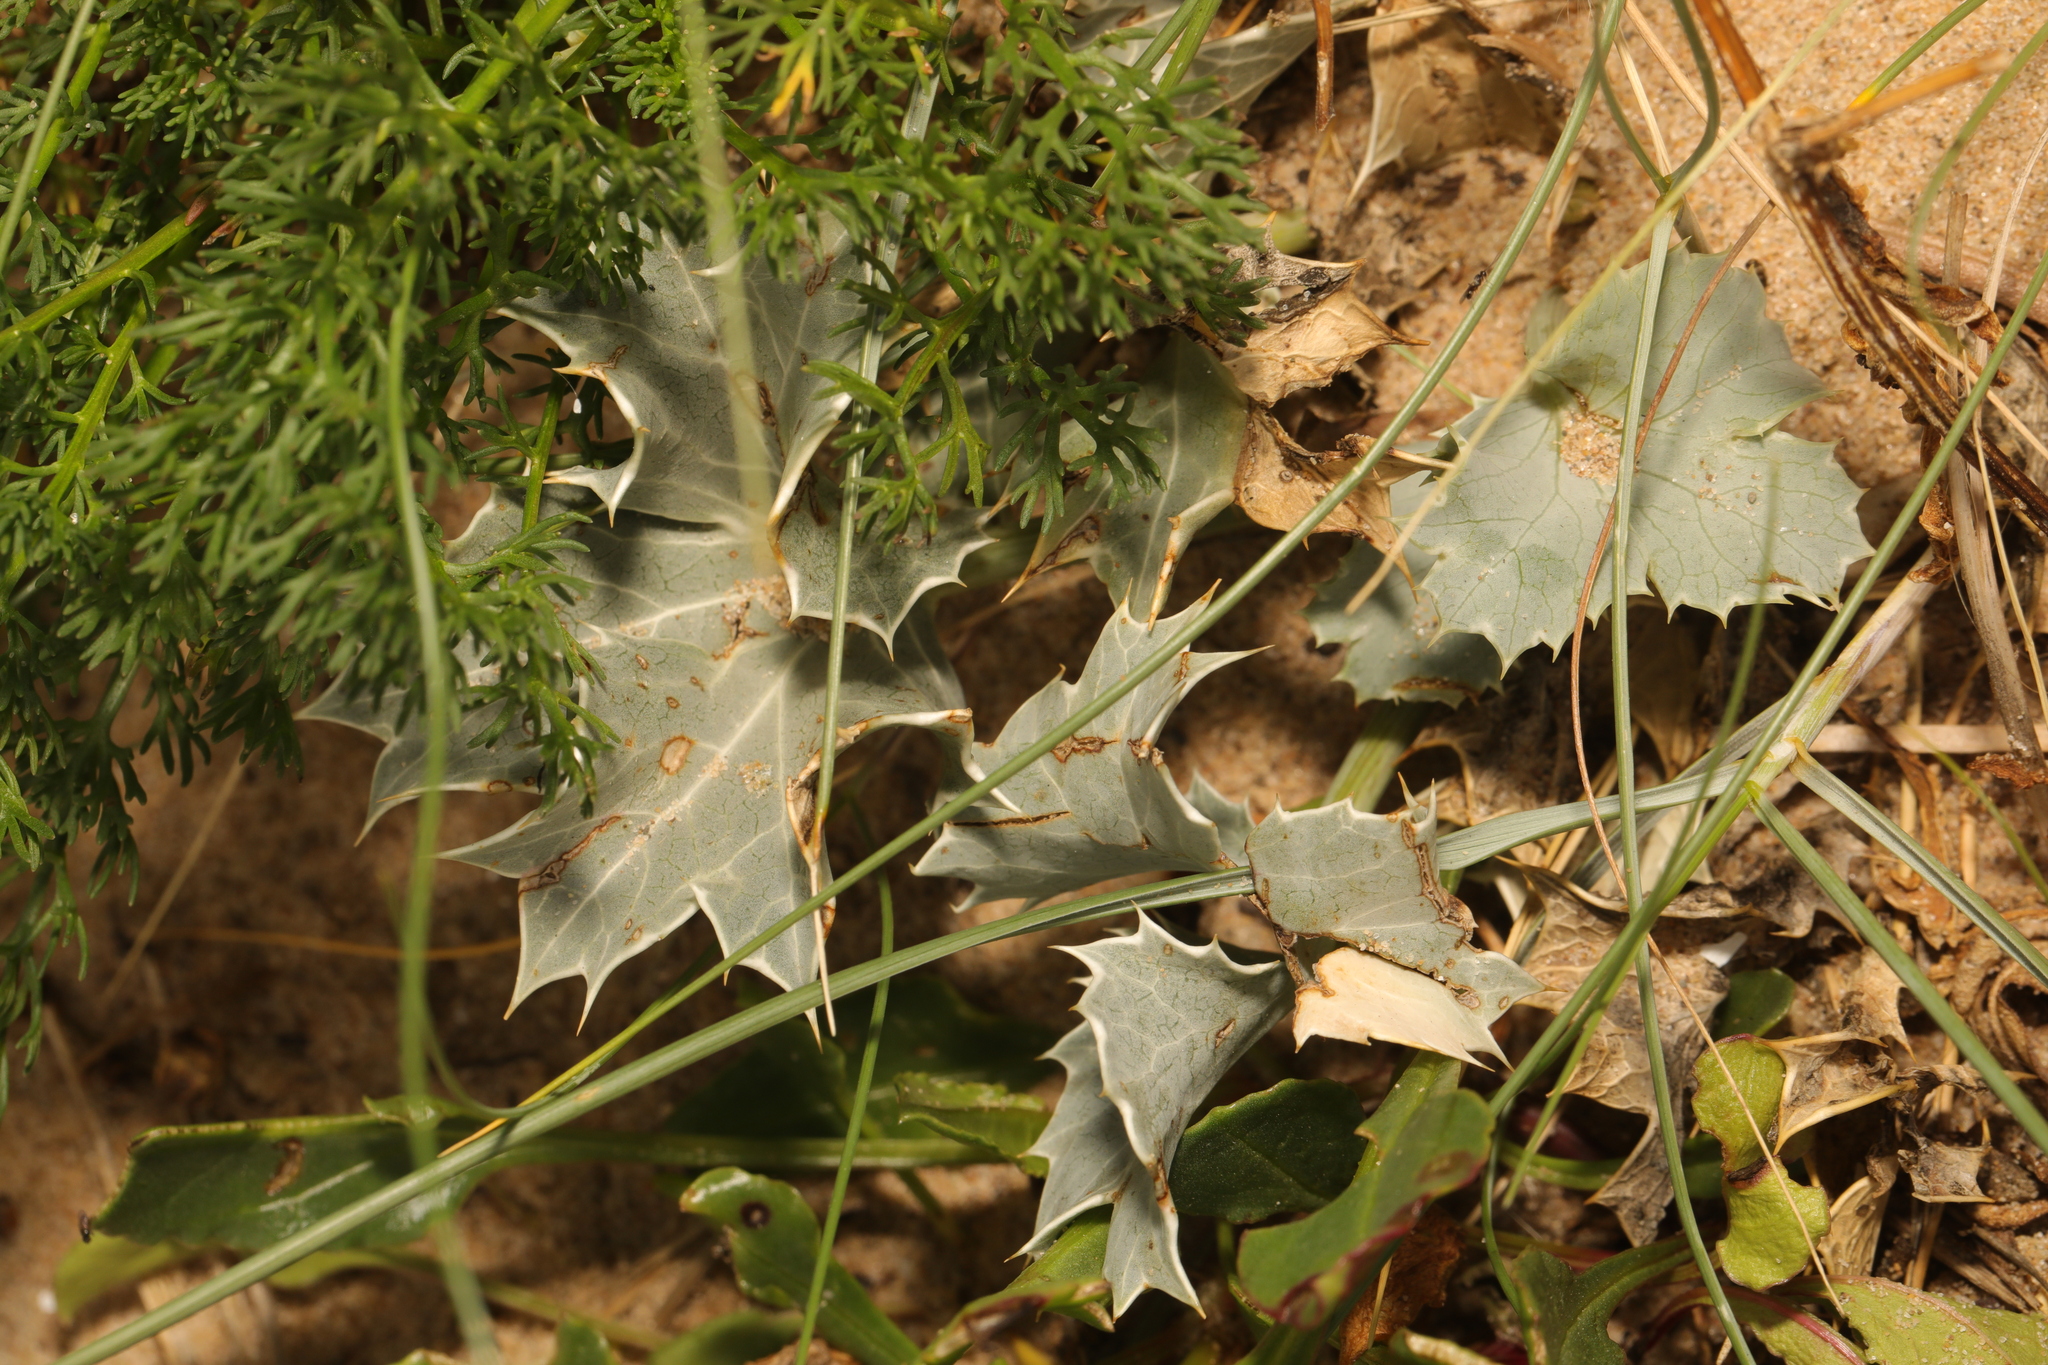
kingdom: Plantae
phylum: Tracheophyta
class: Magnoliopsida
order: Apiales
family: Apiaceae
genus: Eryngium
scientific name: Eryngium maritimum
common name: Sea-holly
